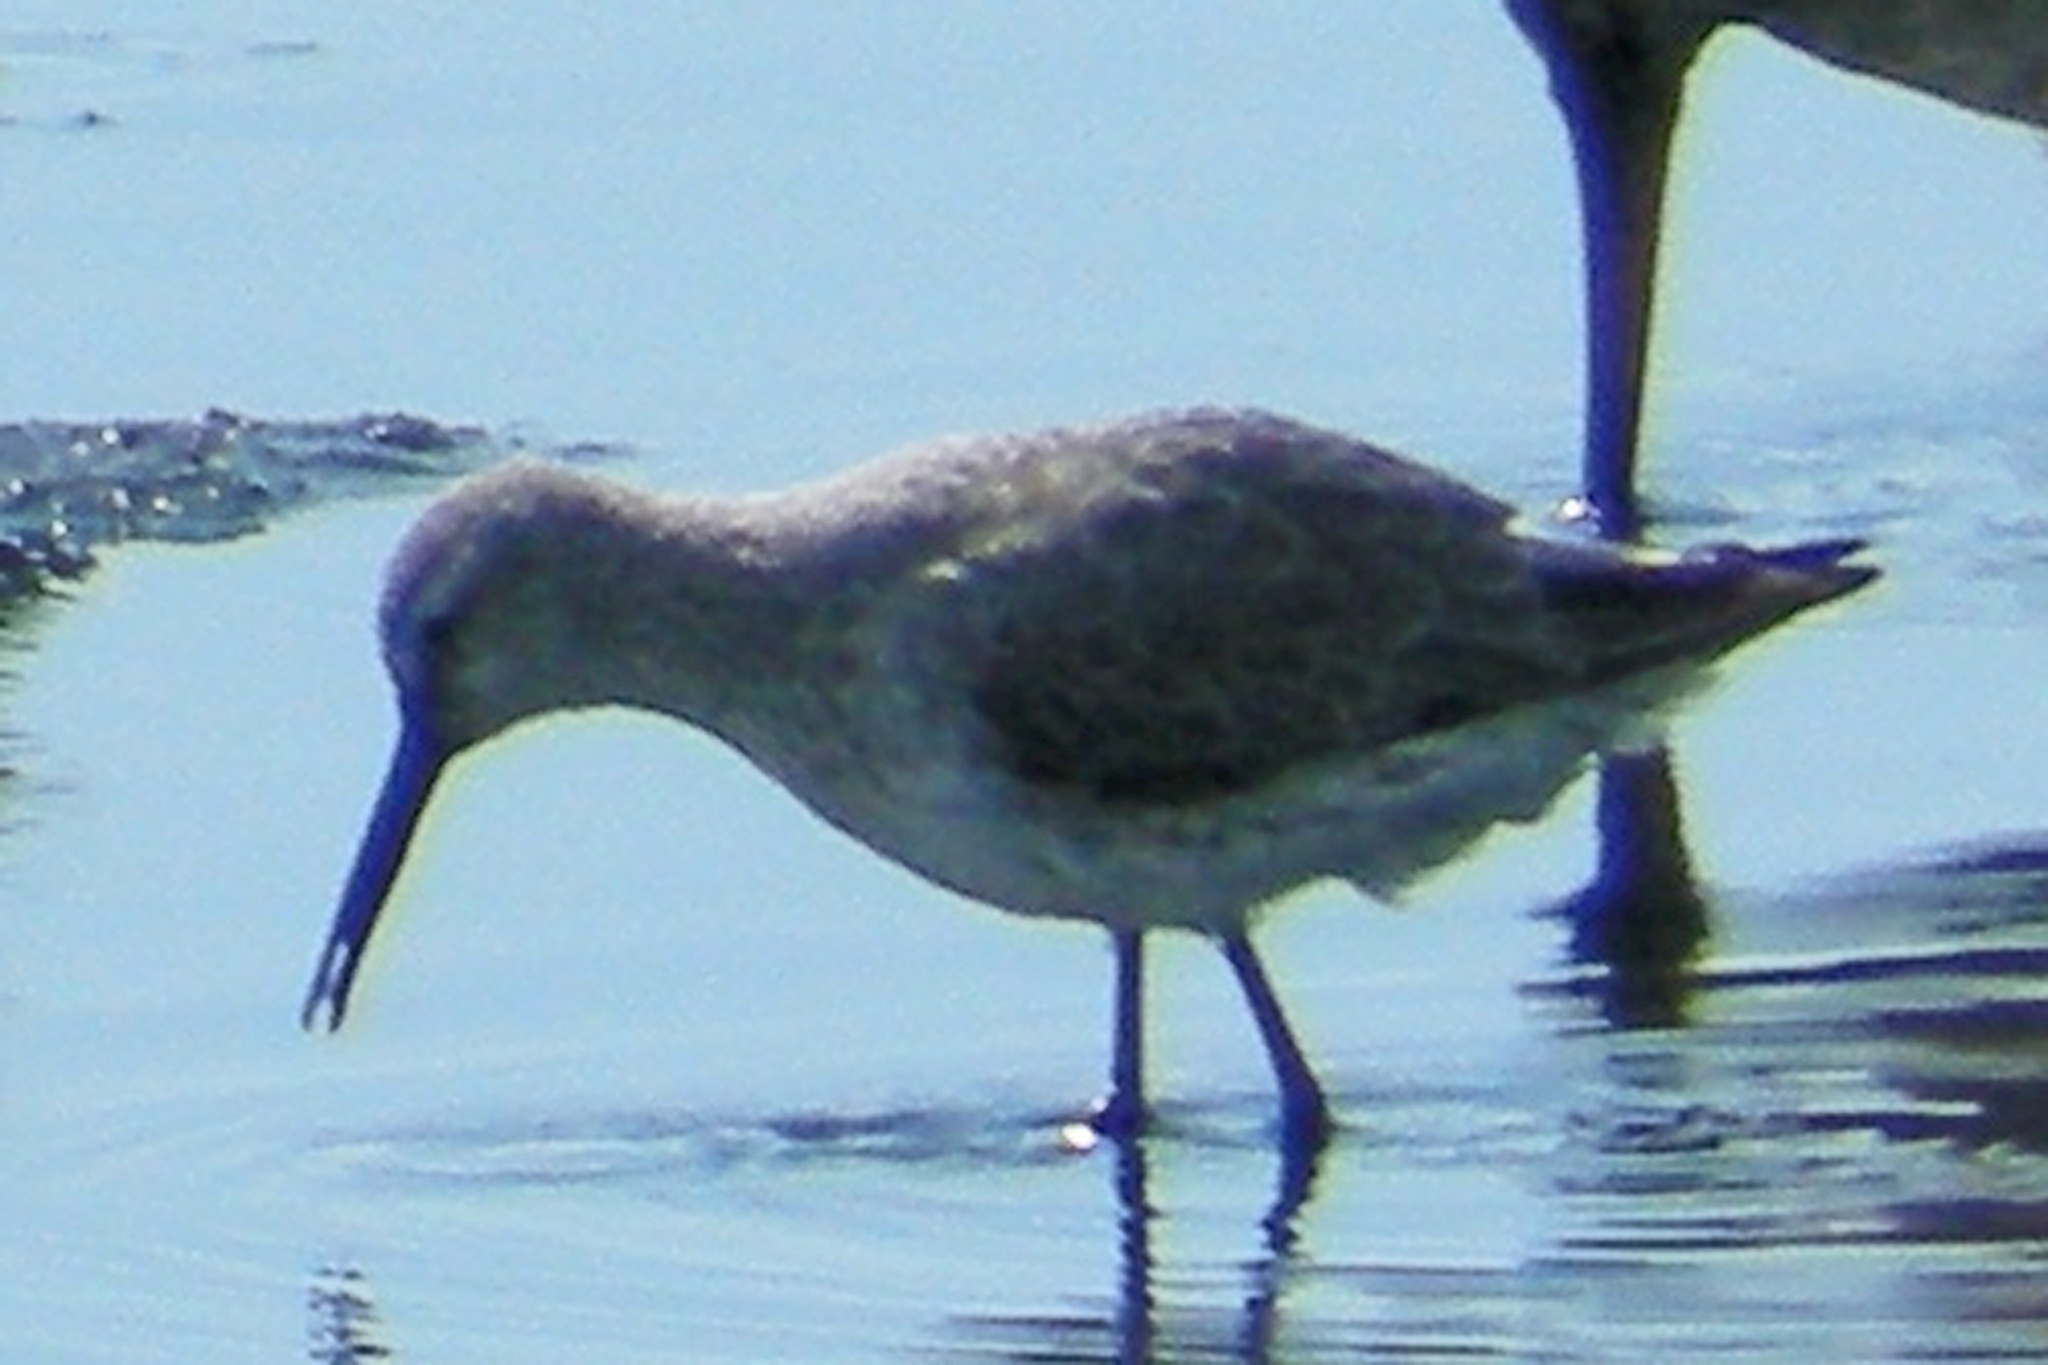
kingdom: Animalia
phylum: Chordata
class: Aves
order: Charadriiformes
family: Scolopacidae
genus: Calidris
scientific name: Calidris himantopus
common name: Stilt sandpiper
